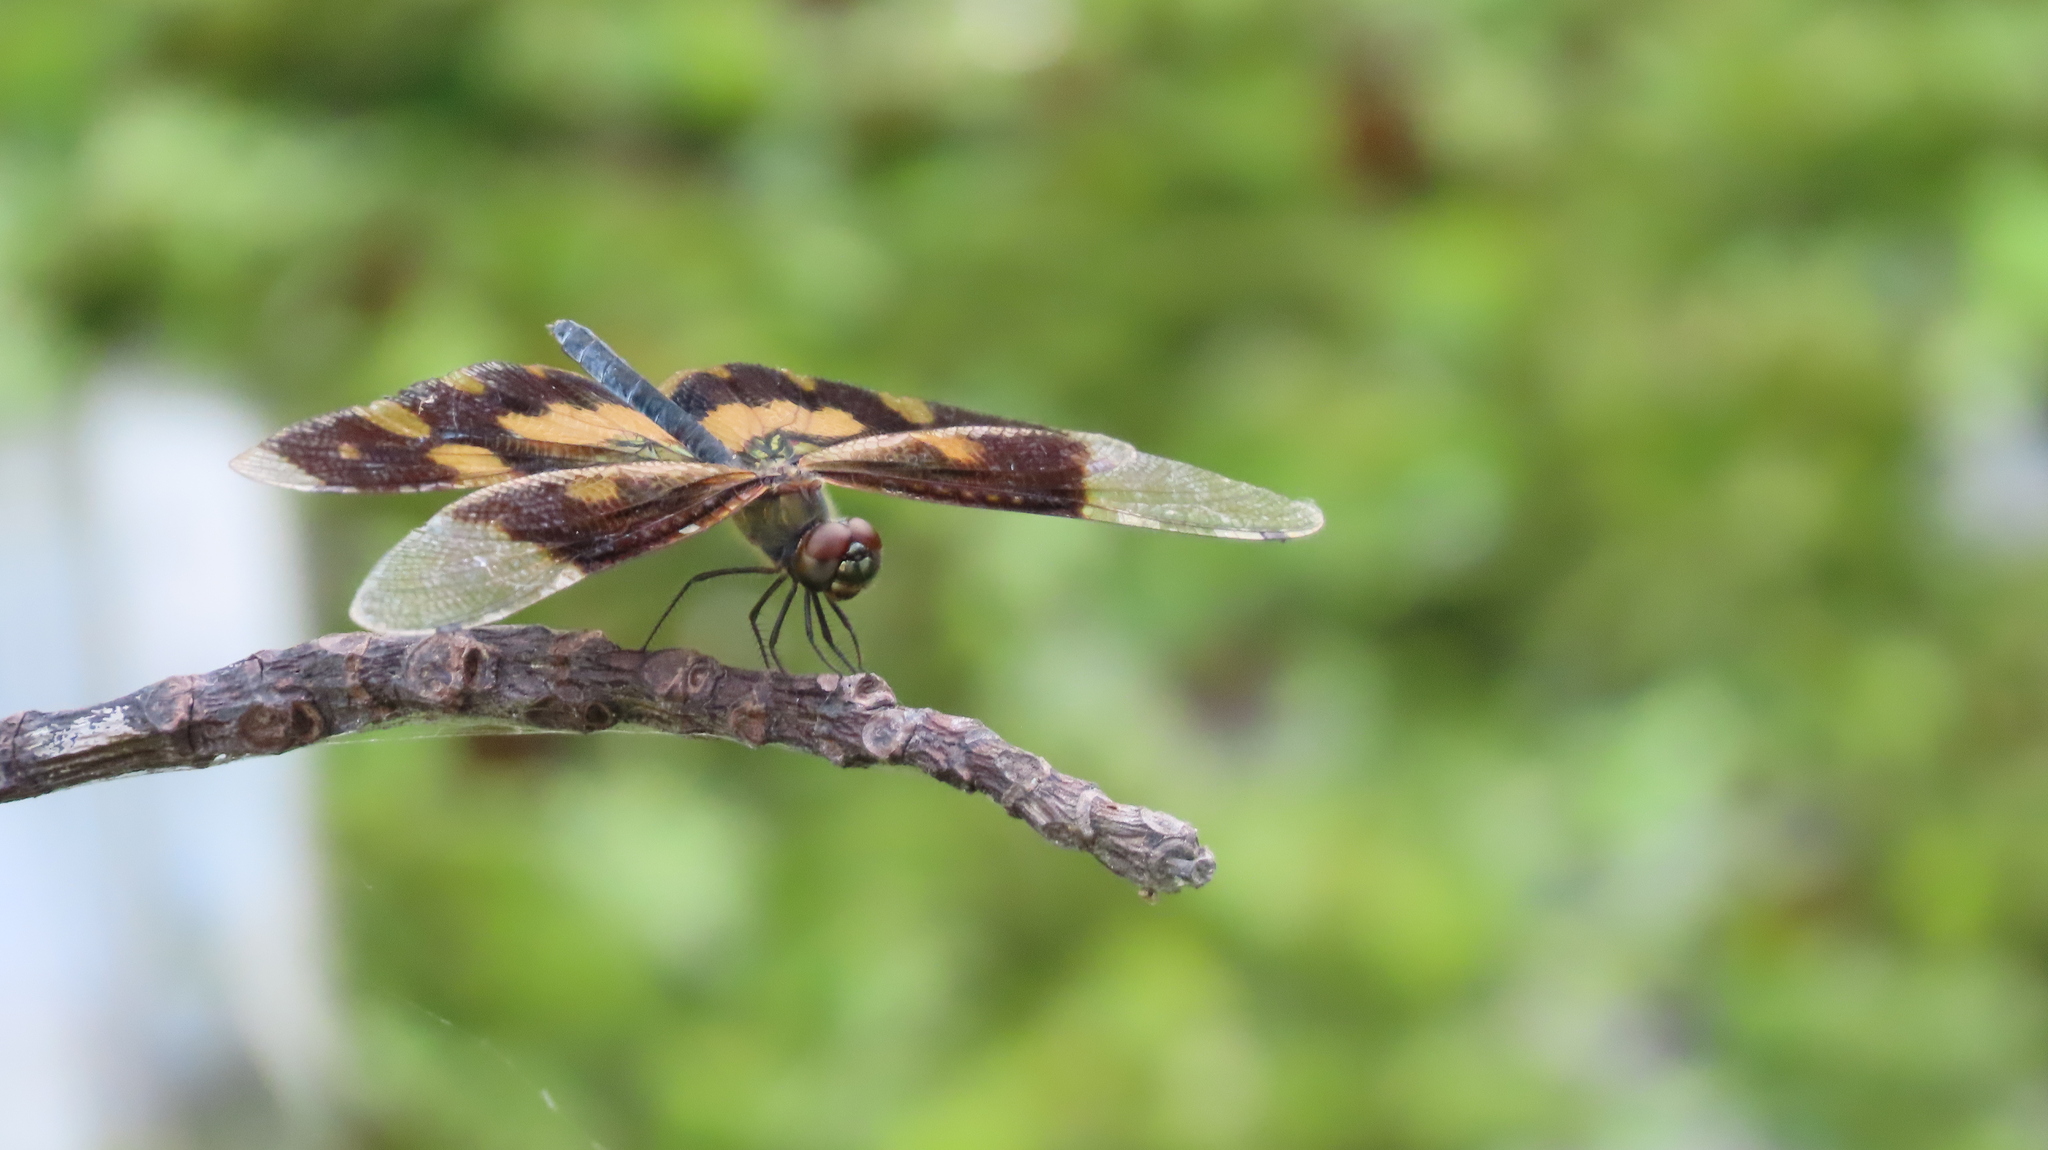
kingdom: Animalia
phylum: Arthropoda
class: Insecta
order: Odonata
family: Libellulidae
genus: Rhyothemis
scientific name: Rhyothemis variegata
